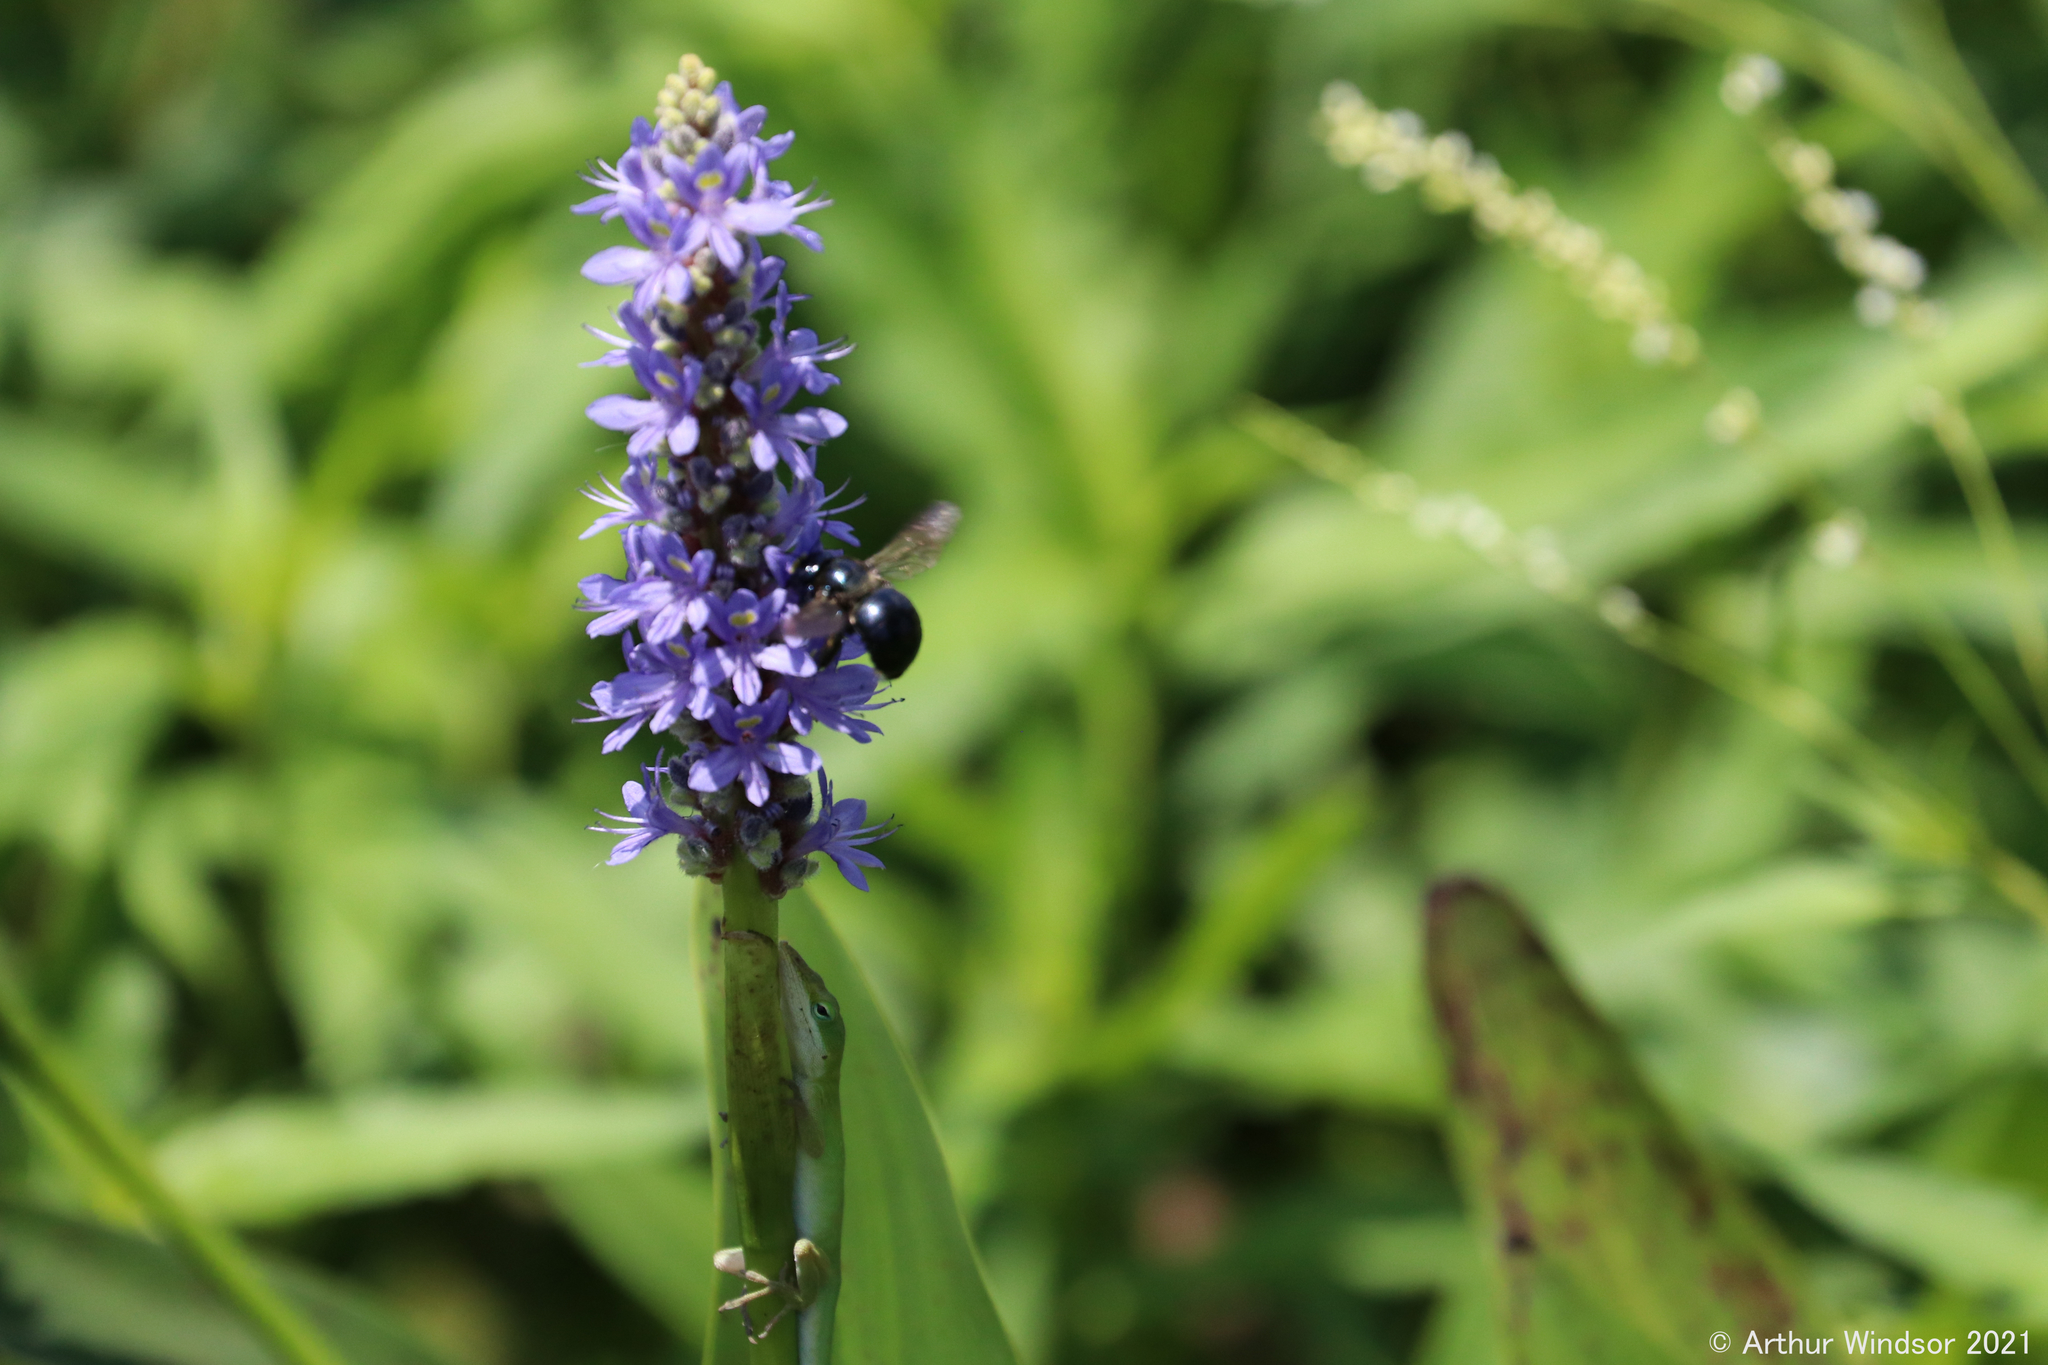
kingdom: Animalia
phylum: Chordata
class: Squamata
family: Dactyloidae
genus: Anolis
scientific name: Anolis carolinensis
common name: Green anole
